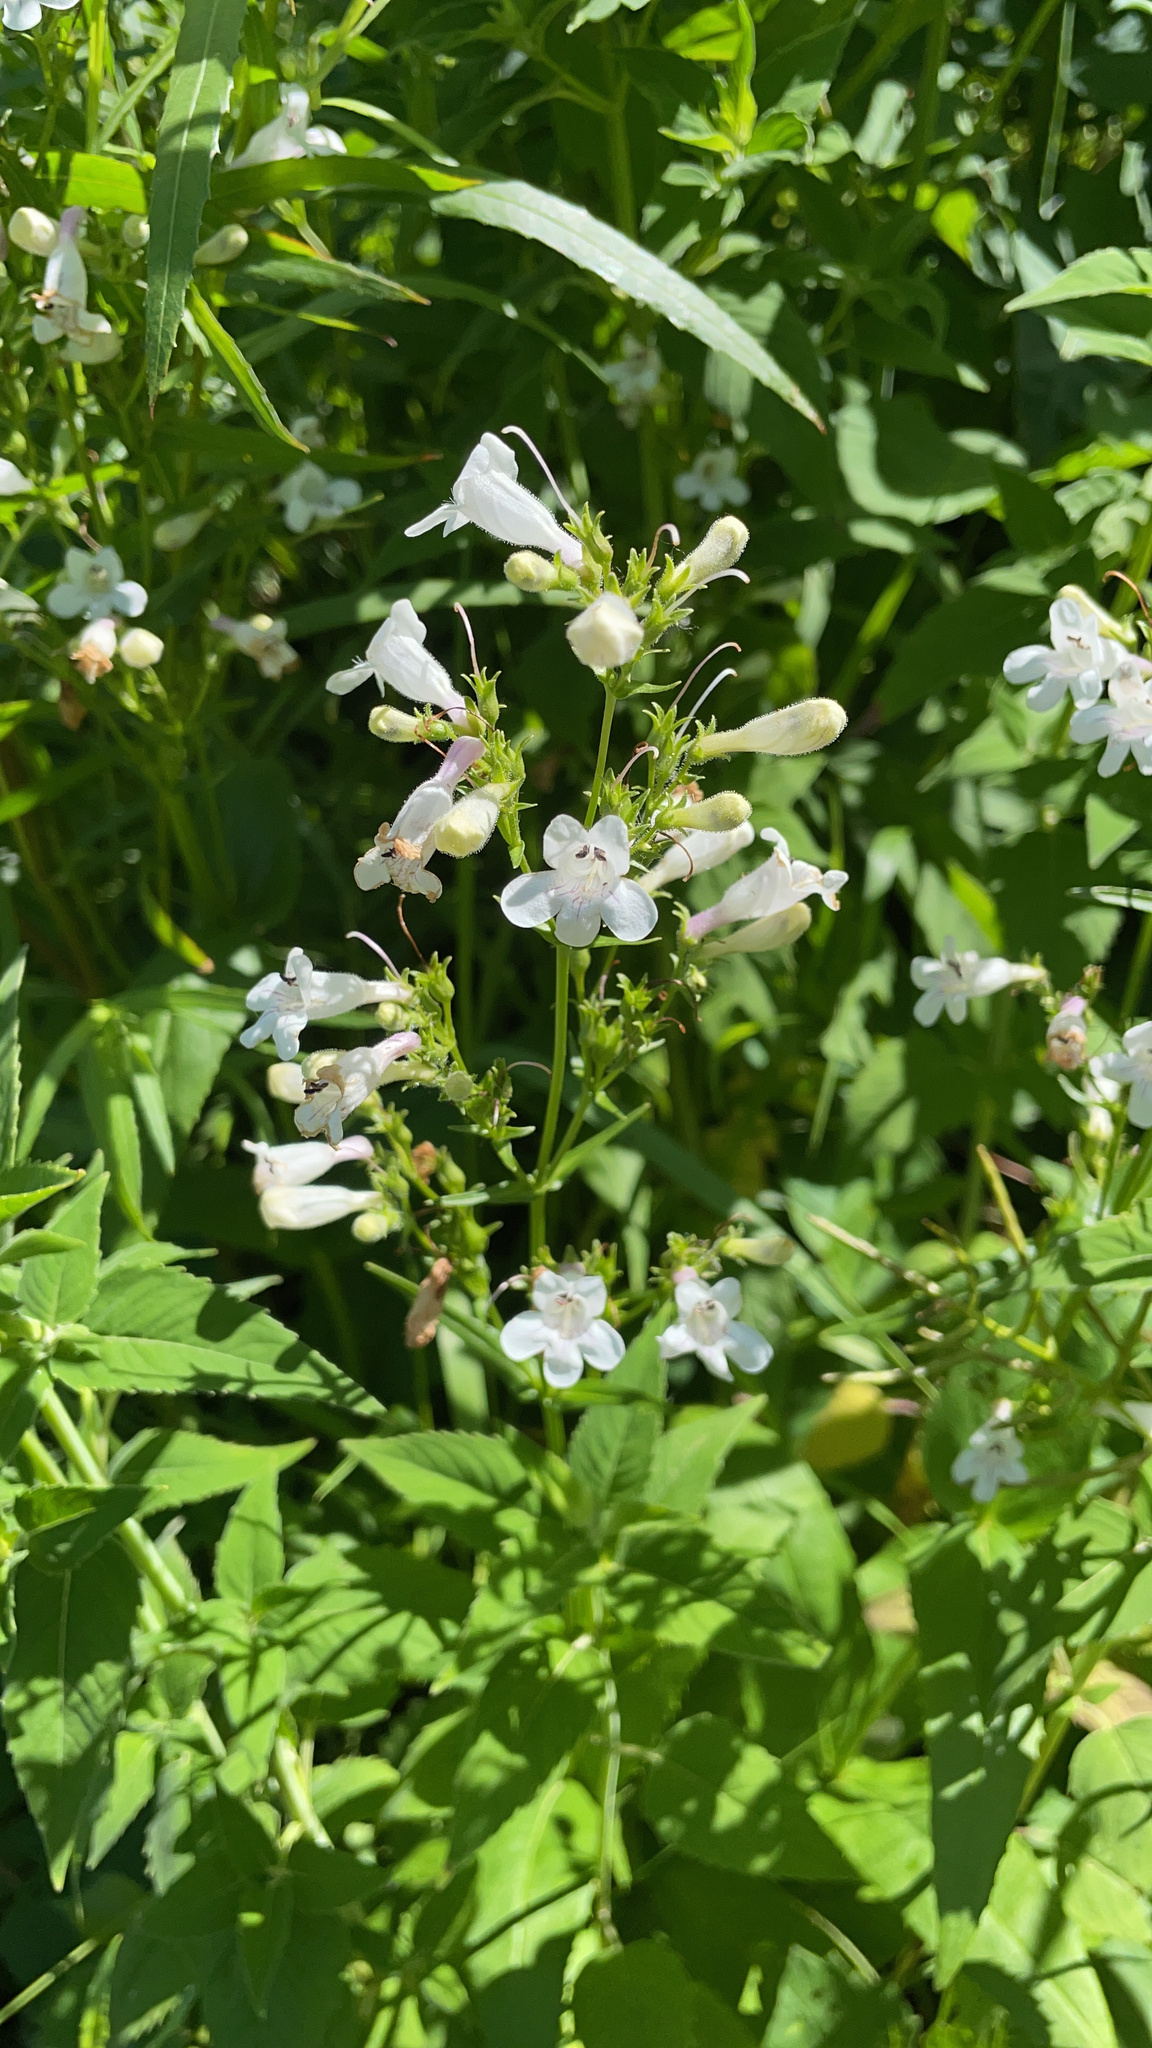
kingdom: Plantae
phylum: Tracheophyta
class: Magnoliopsida
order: Lamiales
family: Plantaginaceae
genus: Penstemon
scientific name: Penstemon digitalis
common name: Foxglove beardtongue
